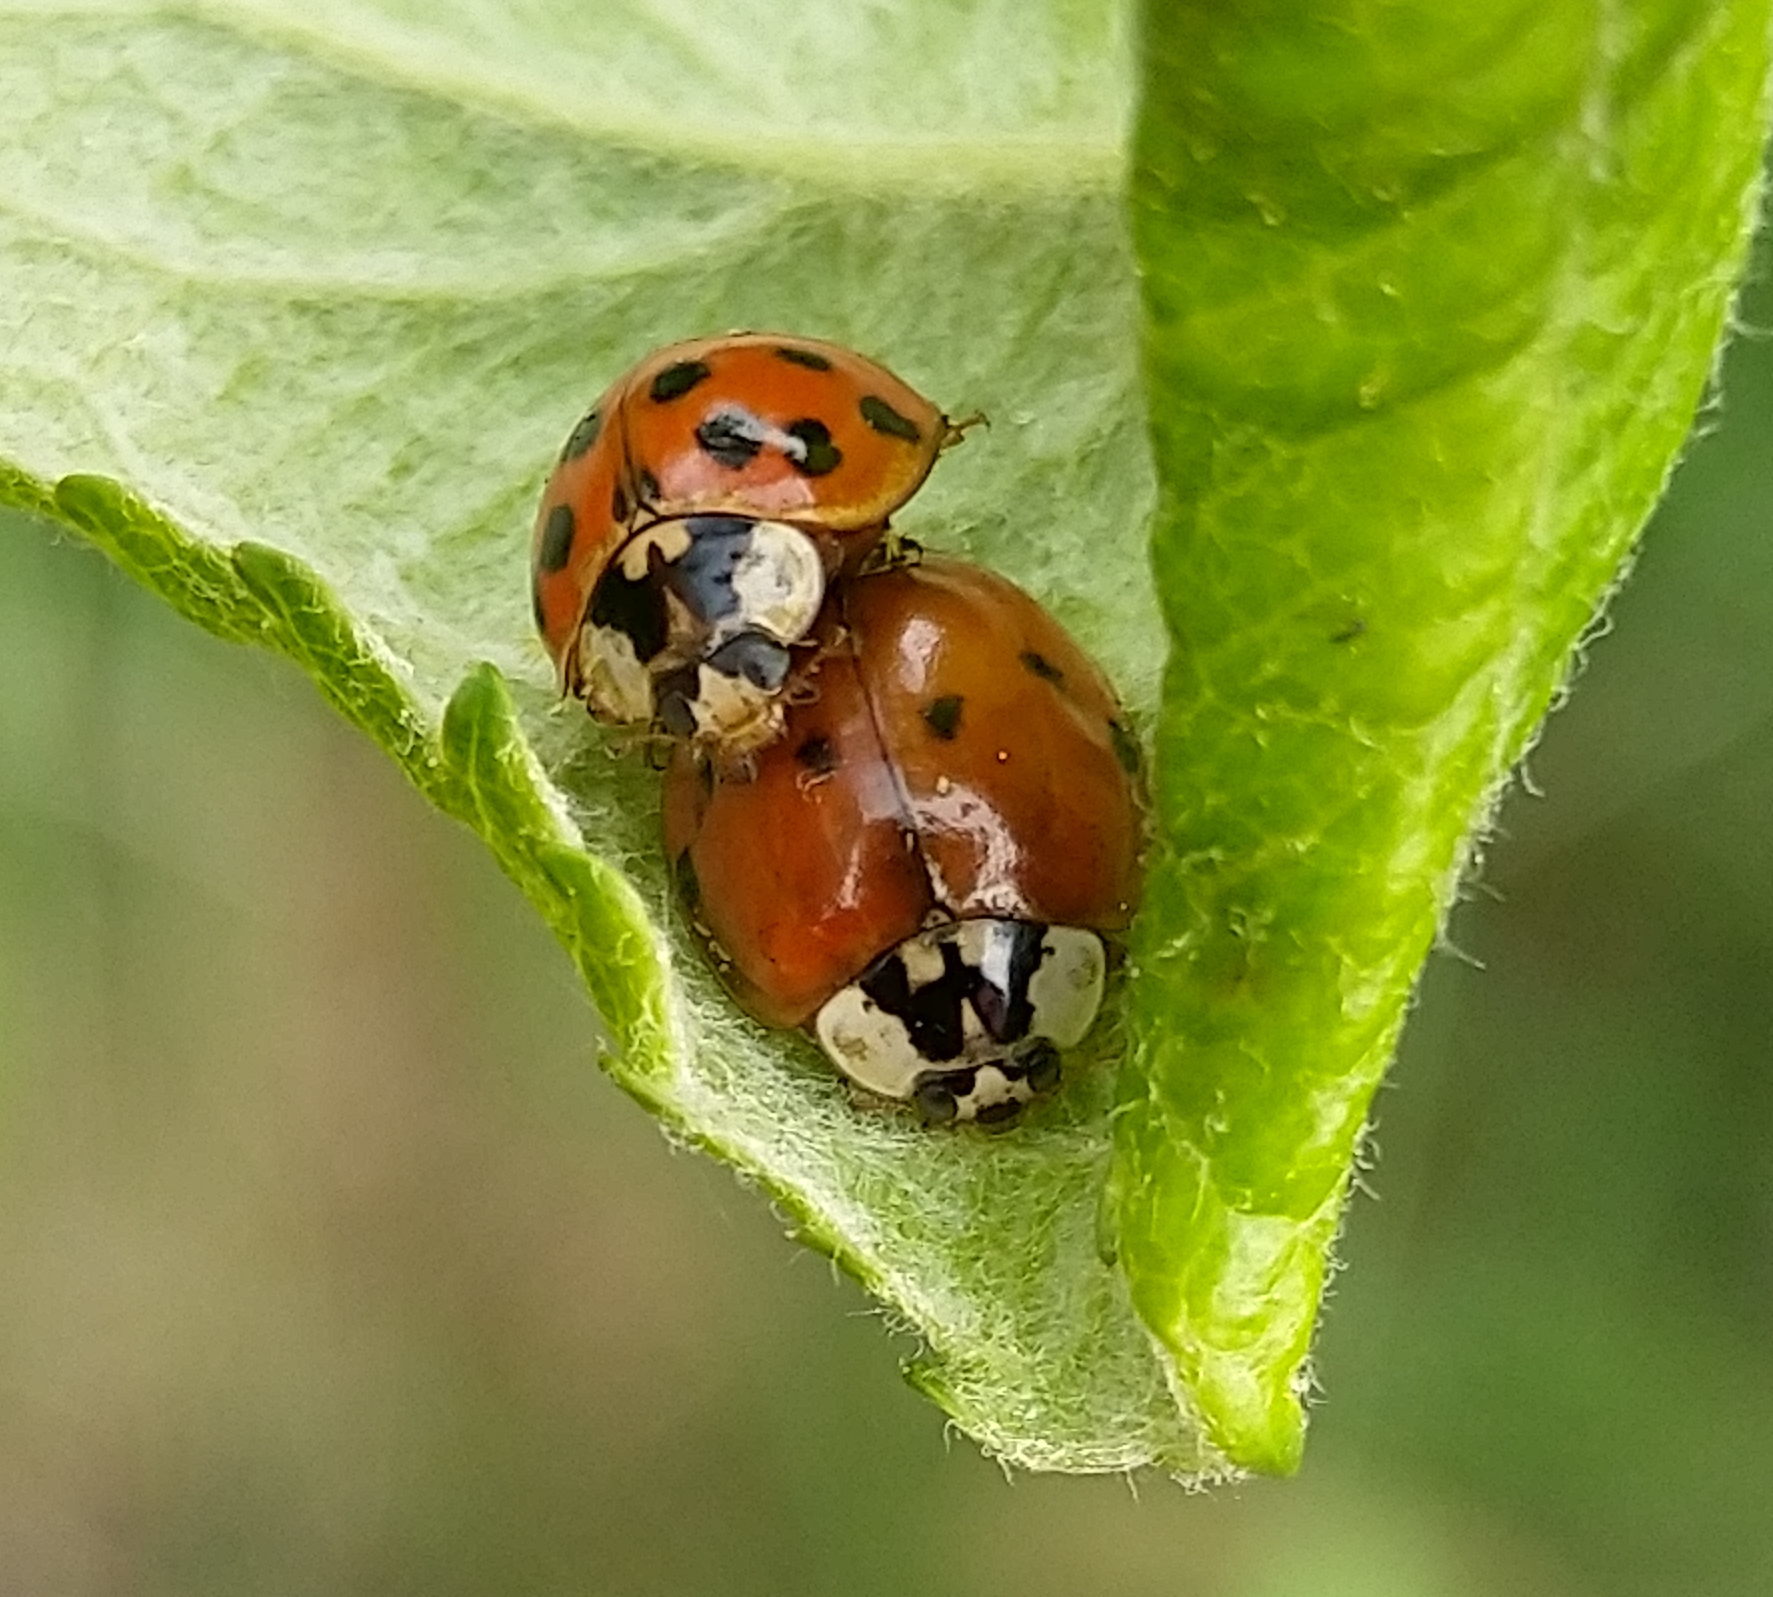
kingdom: Animalia
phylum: Arthropoda
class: Insecta
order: Coleoptera
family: Coccinellidae
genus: Harmonia
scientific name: Harmonia axyridis
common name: Harlequin ladybird
